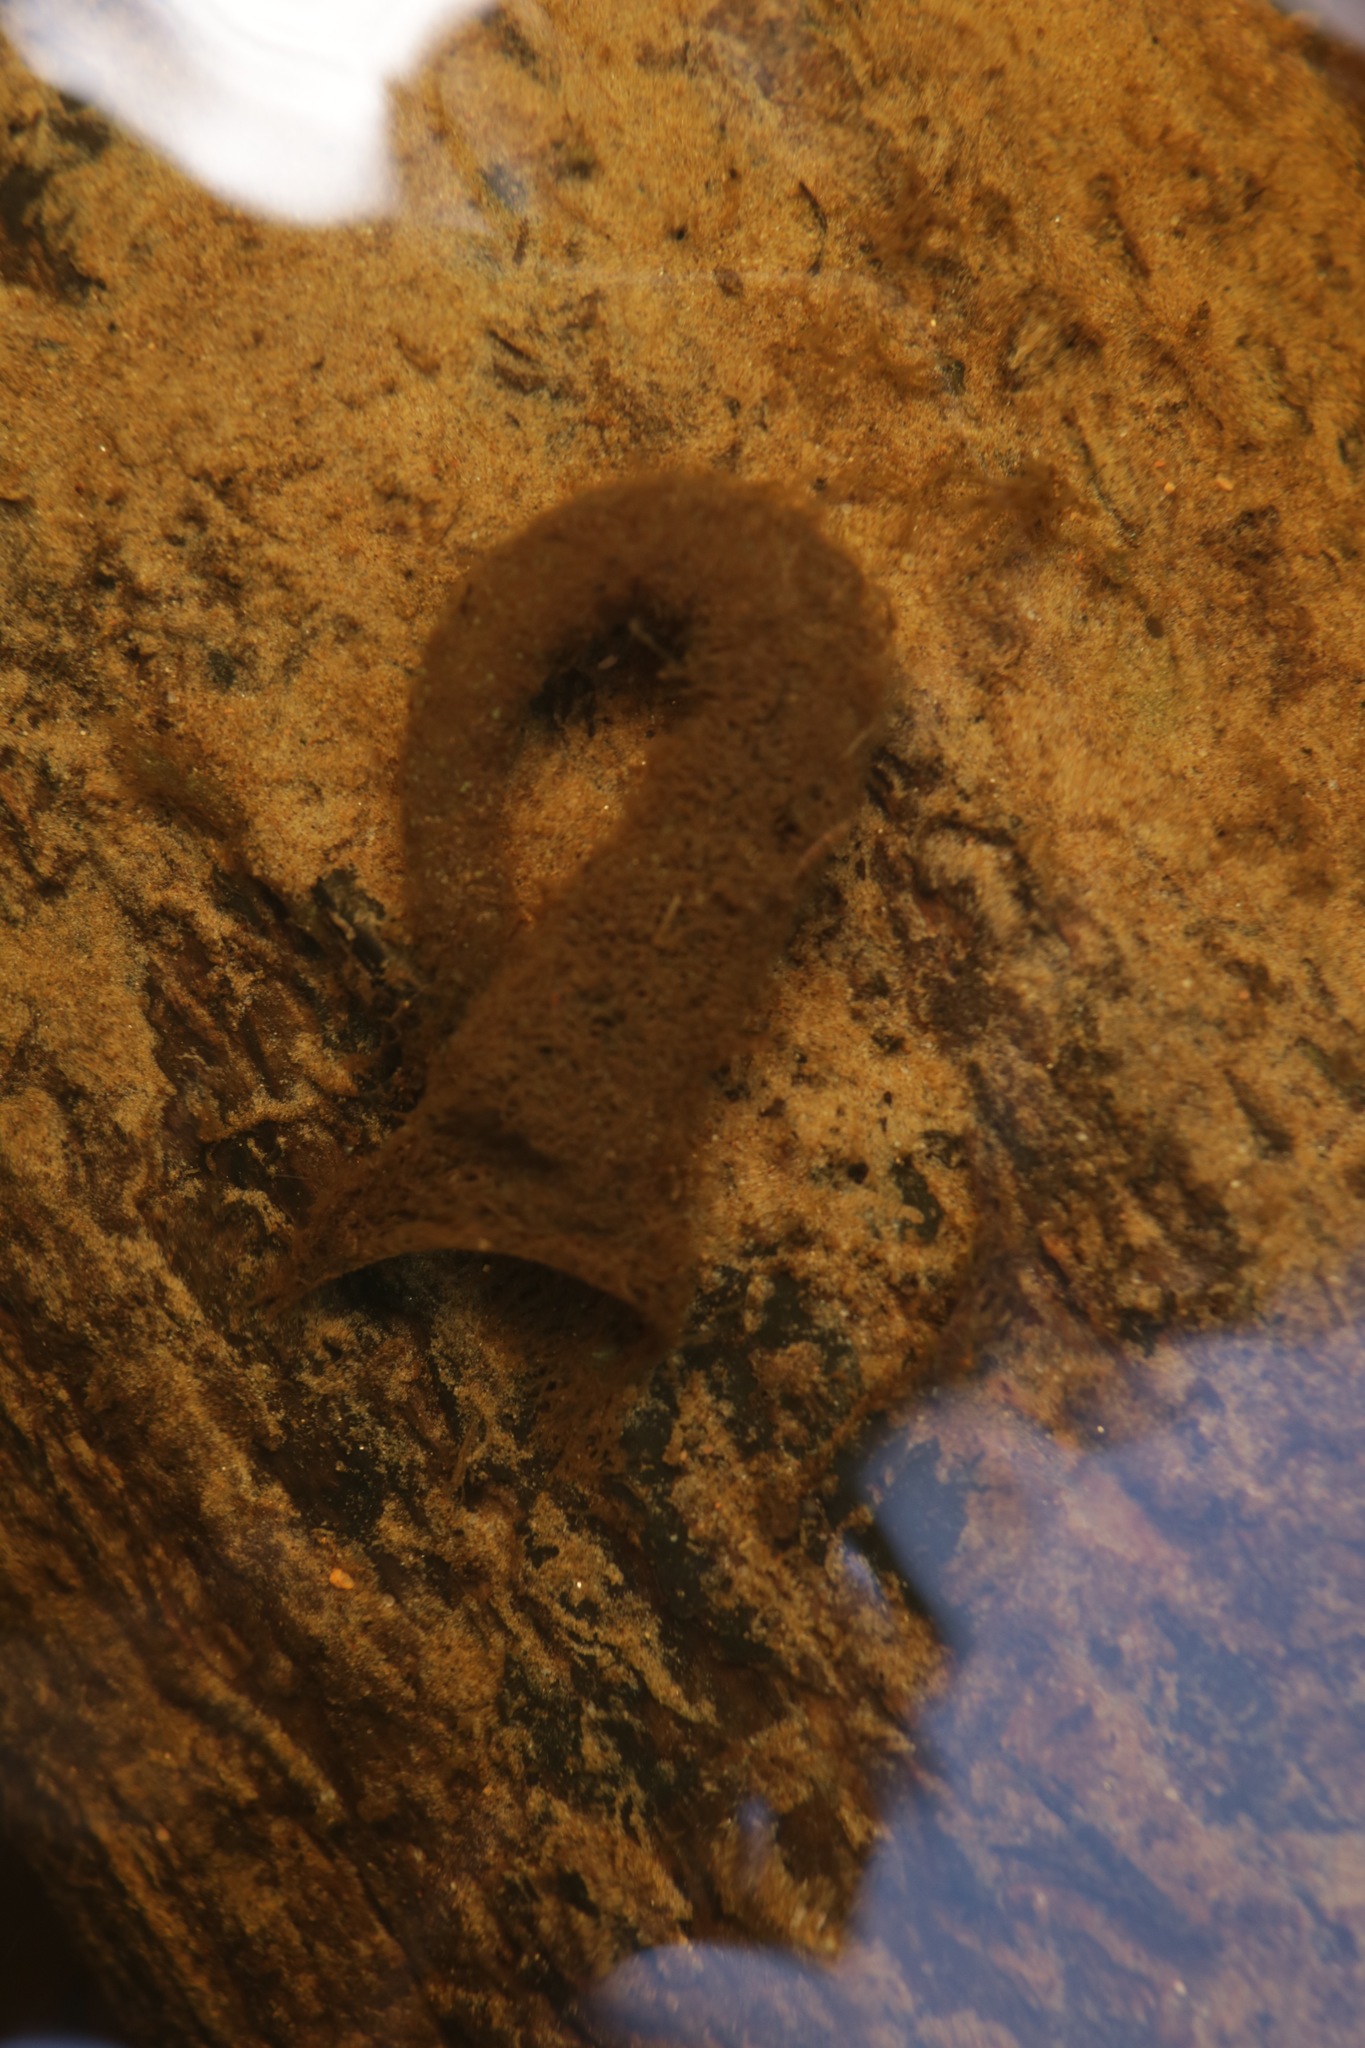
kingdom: Animalia
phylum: Arthropoda
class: Insecta
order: Trichoptera
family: Polycentropodidae
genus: Neureclipsis
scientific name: Neureclipsis bimaculata
